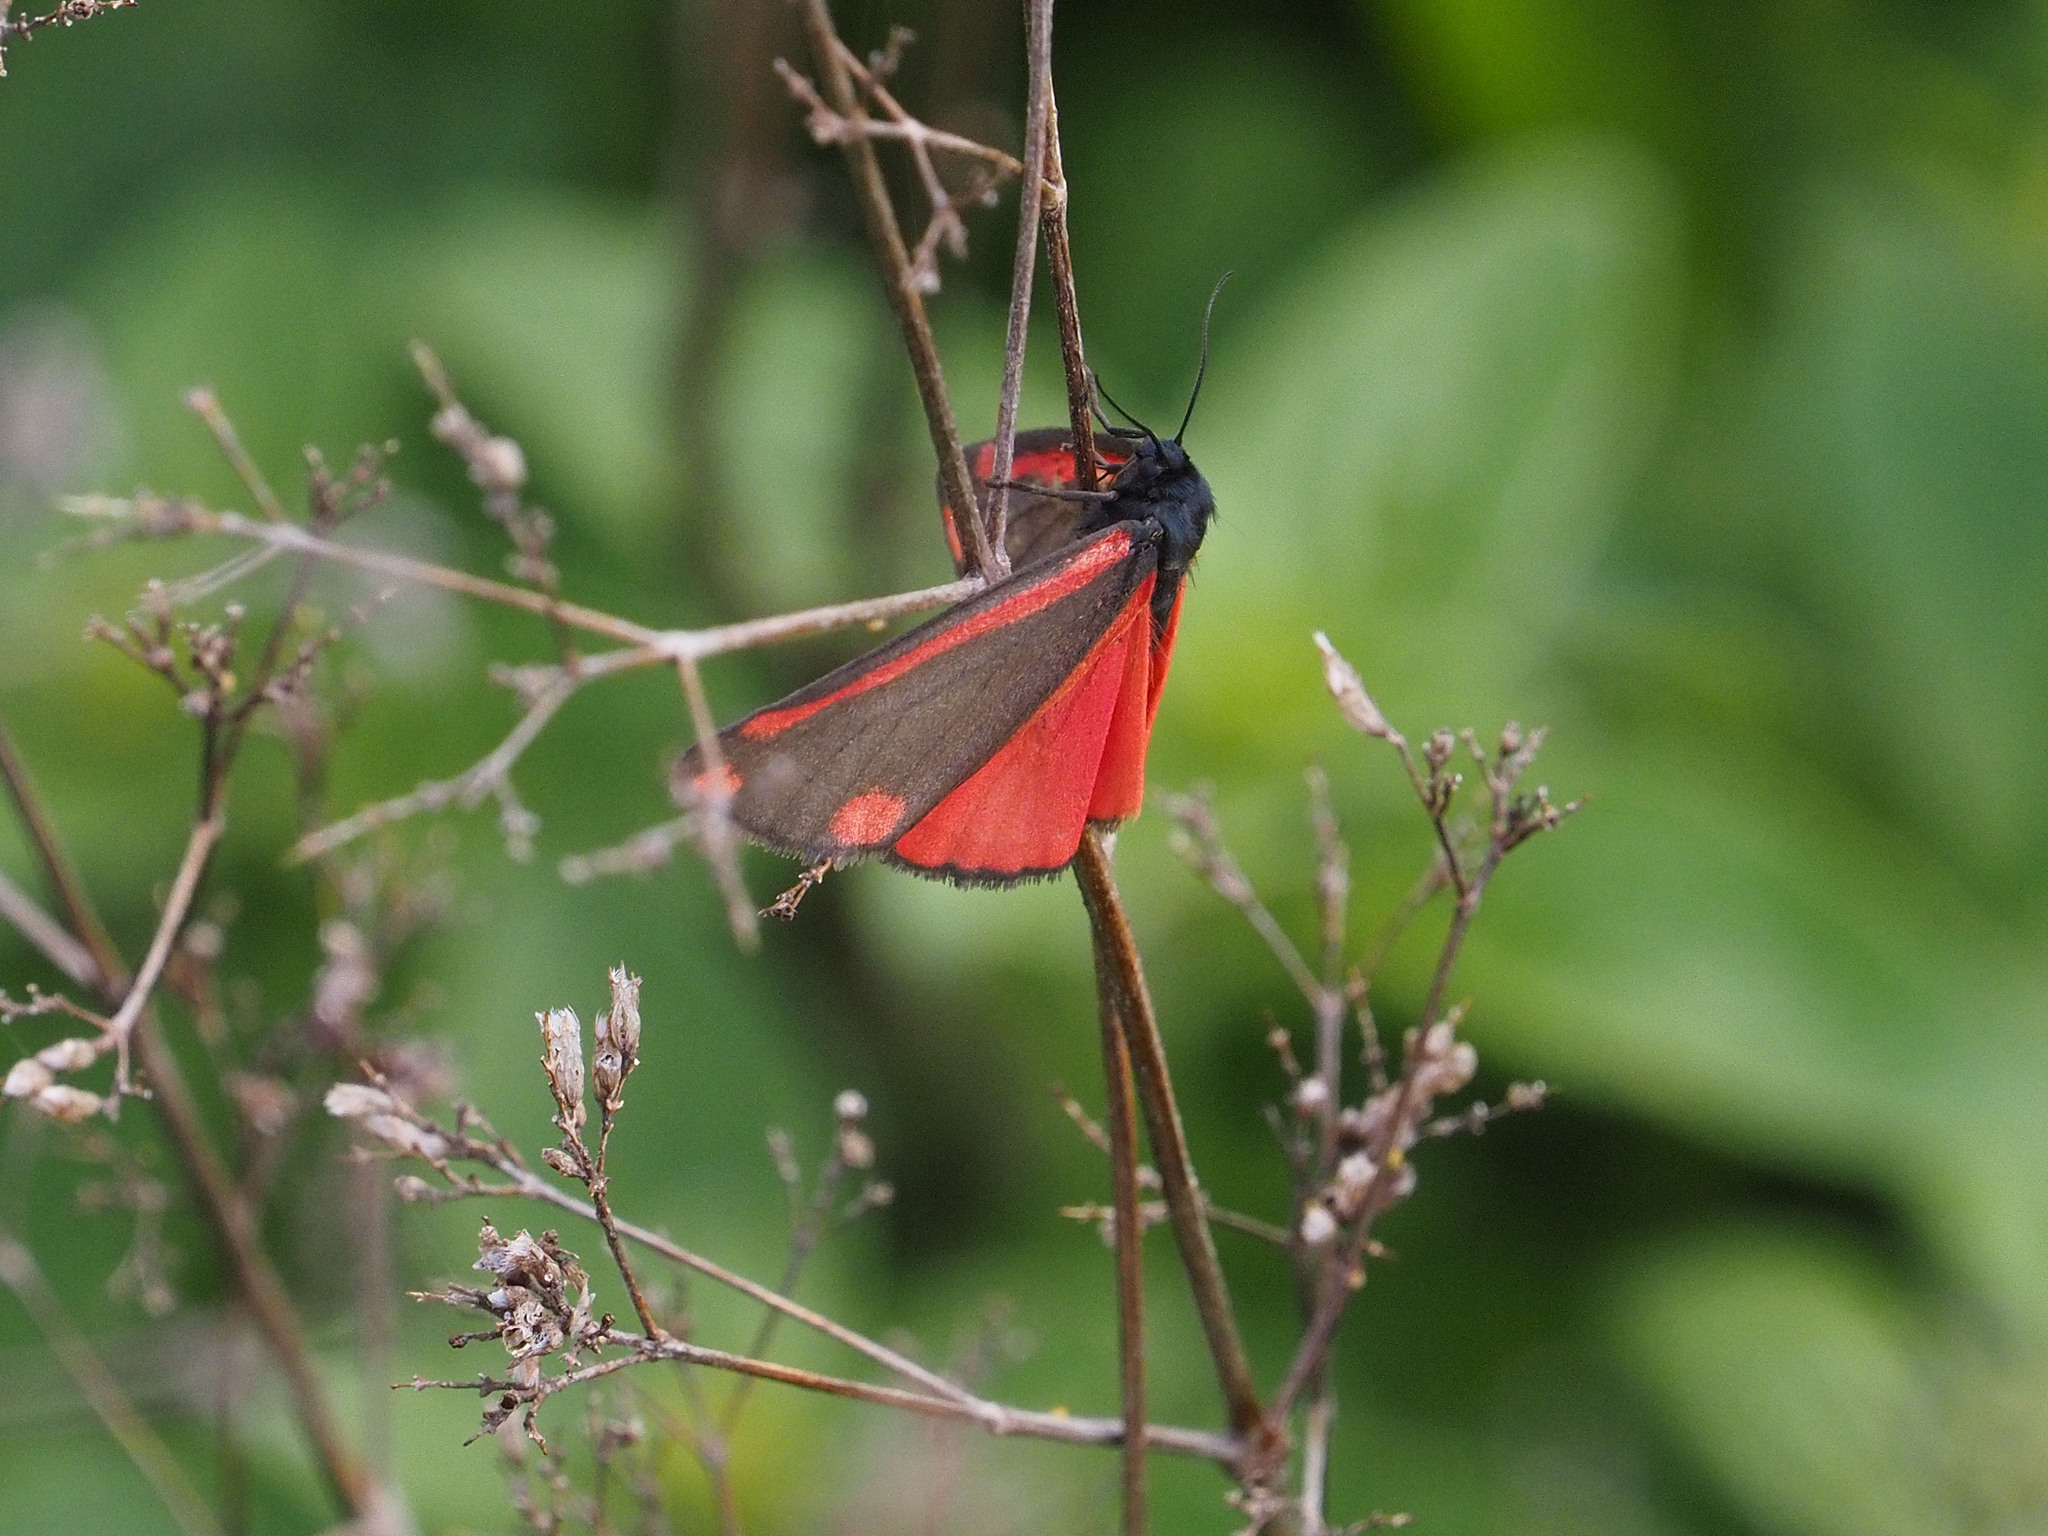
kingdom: Animalia
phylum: Arthropoda
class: Insecta
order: Lepidoptera
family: Erebidae
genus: Tyria
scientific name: Tyria jacobaeae
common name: Cinnabar
